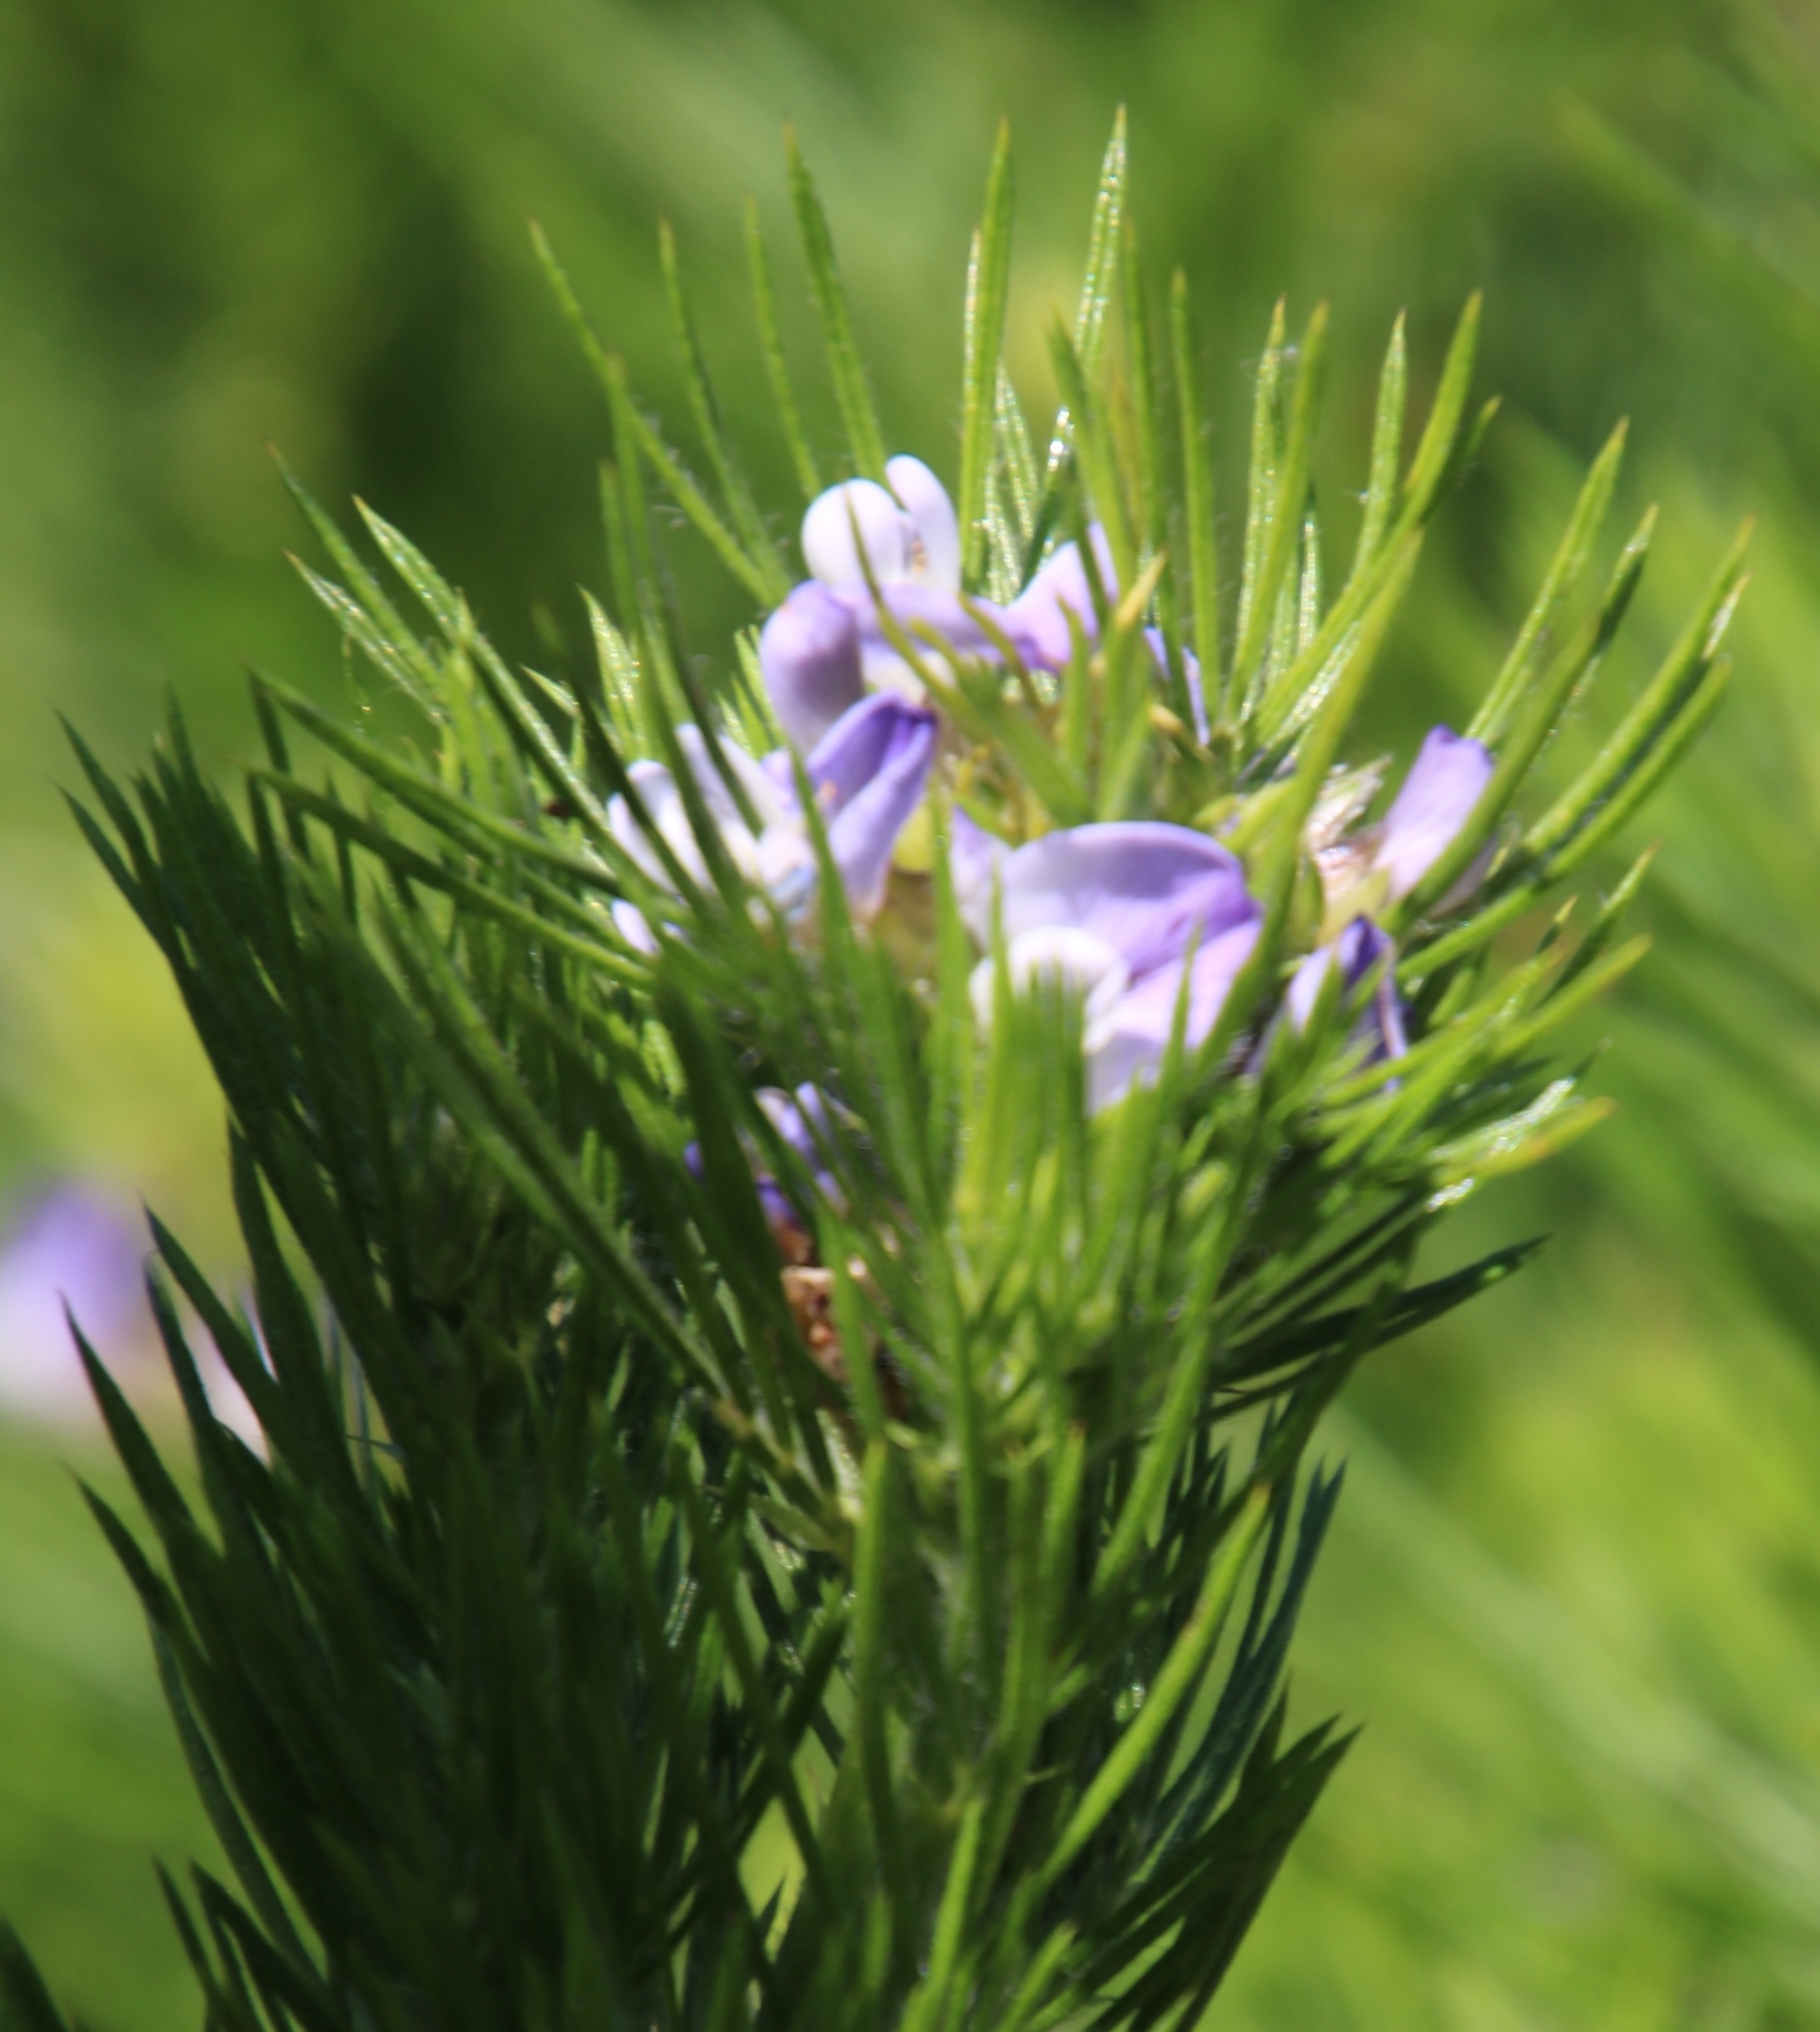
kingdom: Plantae
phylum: Tracheophyta
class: Magnoliopsida
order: Fabales
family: Fabaceae
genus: Psoralea
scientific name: Psoralea pinnata
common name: African scurfpea
